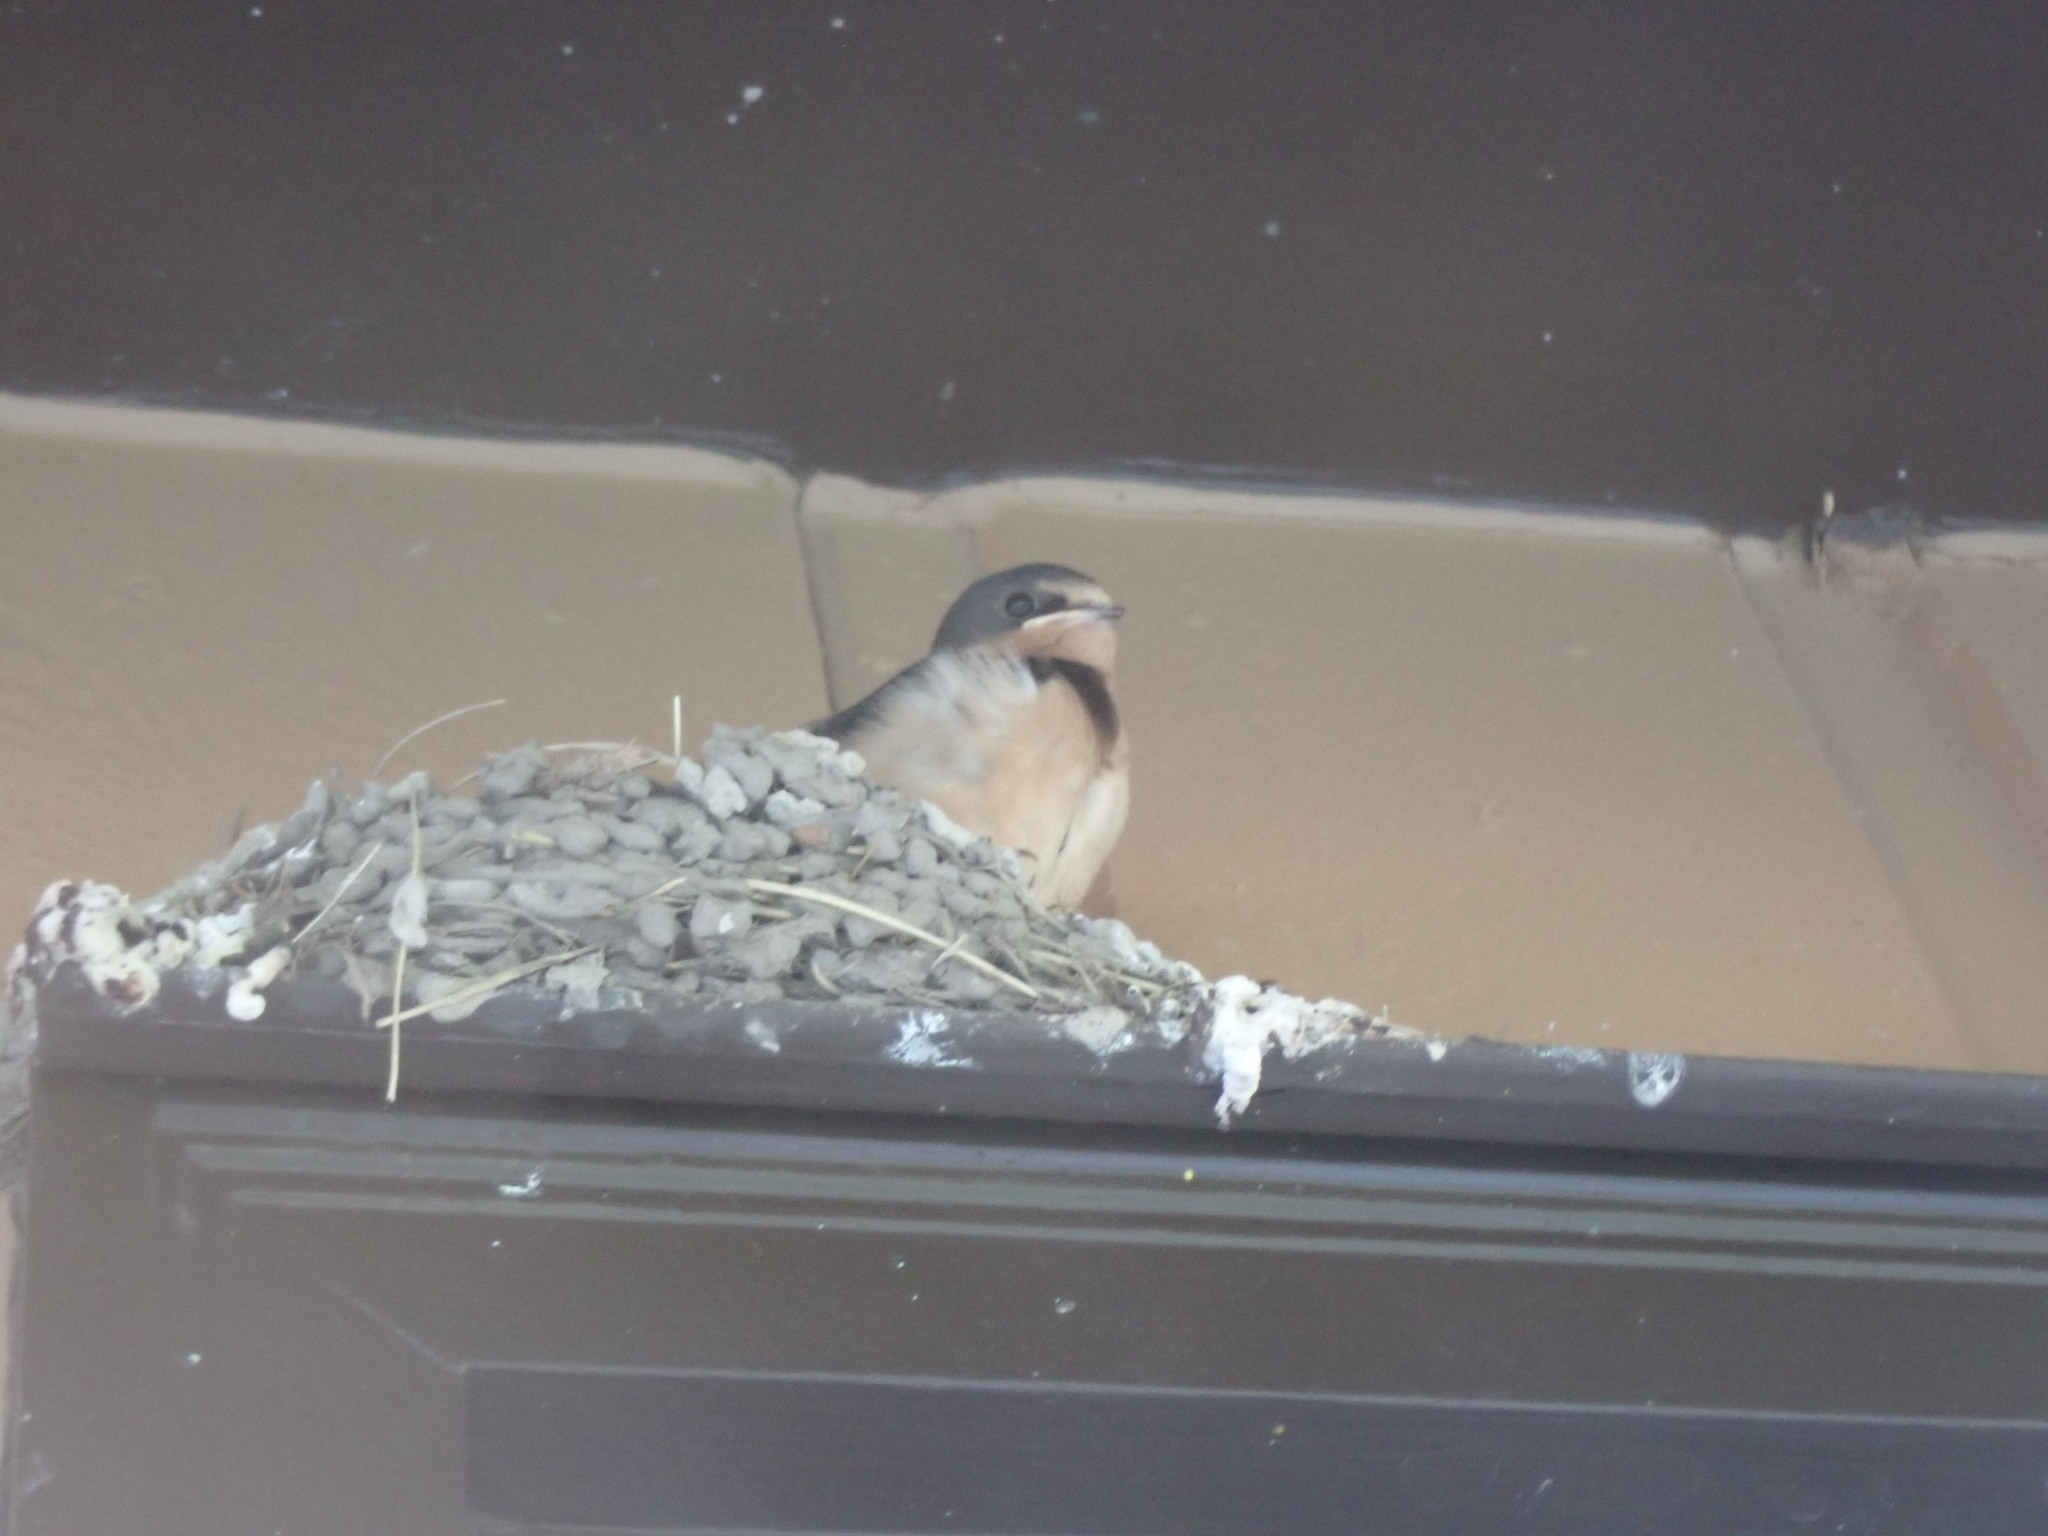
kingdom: Animalia
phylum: Chordata
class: Aves
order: Passeriformes
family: Hirundinidae
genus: Hirundo
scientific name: Hirundo rustica
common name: Barn swallow
